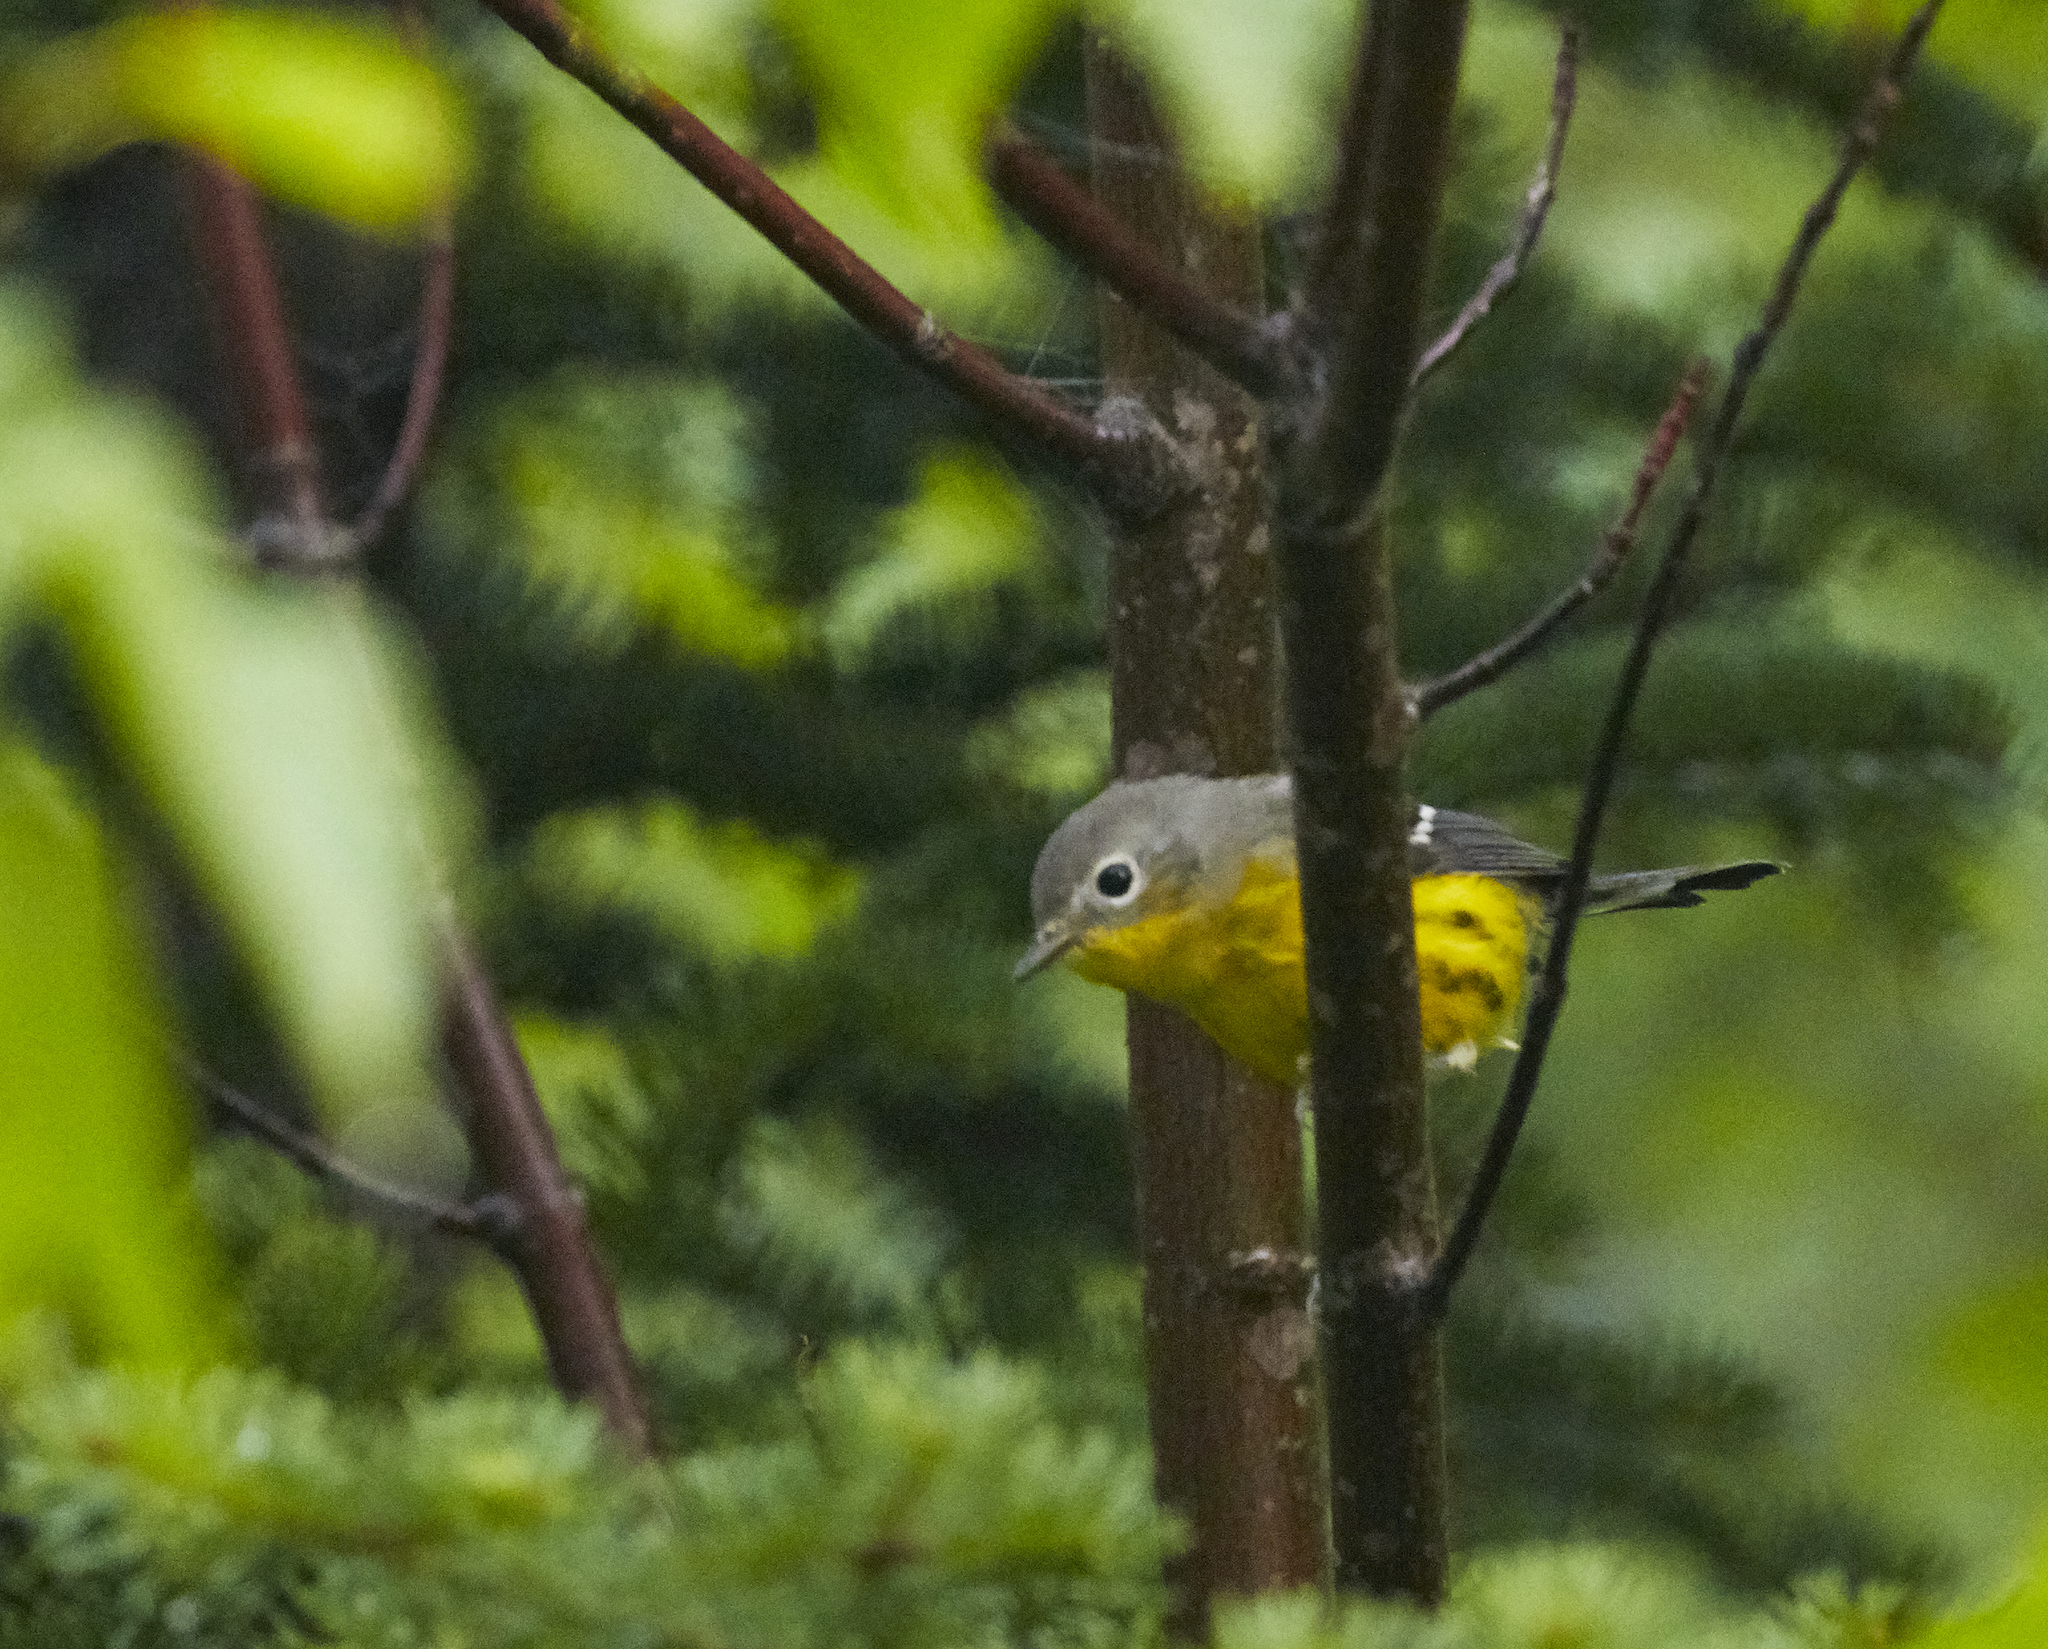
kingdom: Animalia
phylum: Chordata
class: Aves
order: Passeriformes
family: Parulidae
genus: Setophaga
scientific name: Setophaga magnolia
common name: Magnolia warbler
